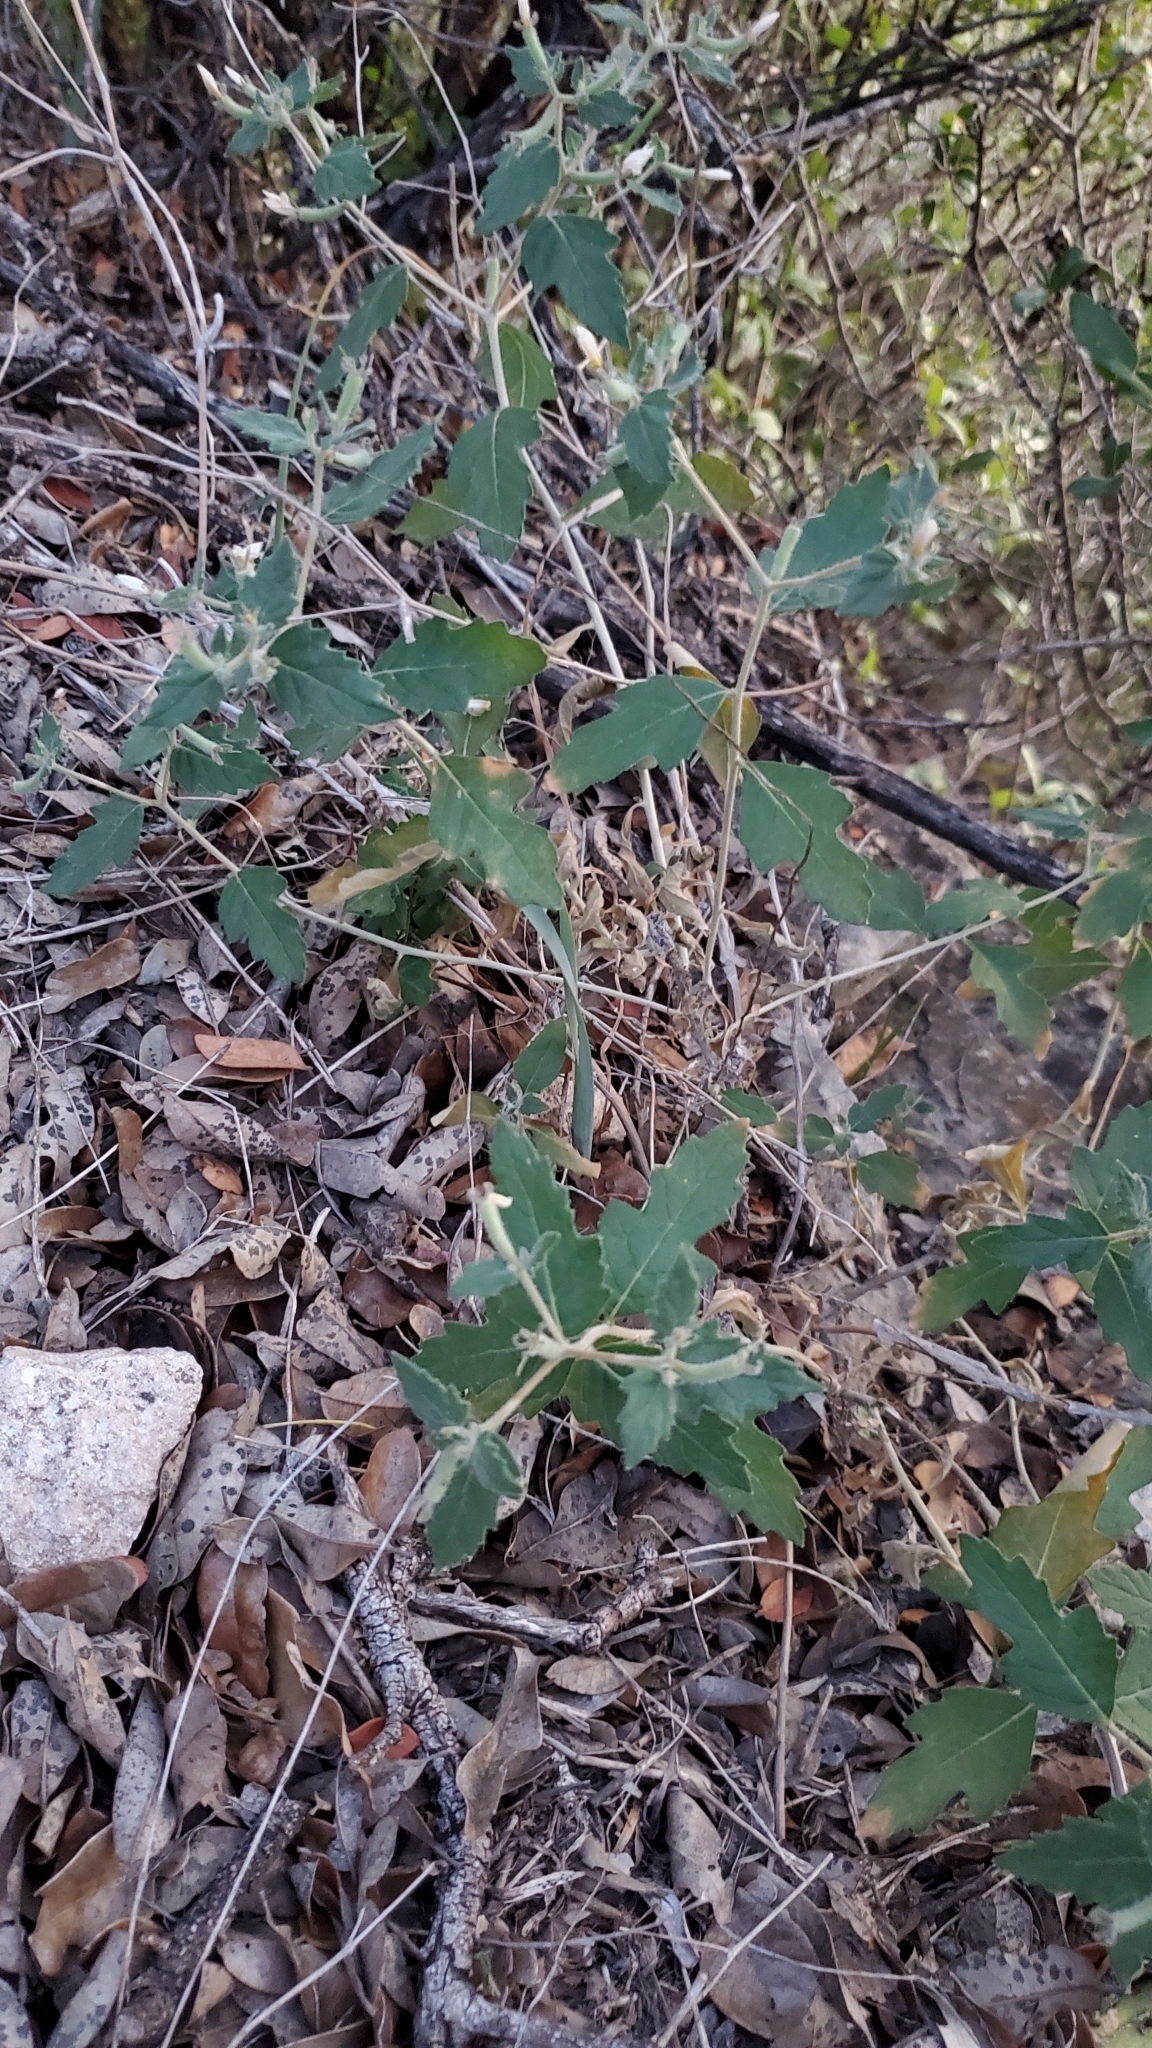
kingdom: Plantae
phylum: Tracheophyta
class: Magnoliopsida
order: Cornales
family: Loasaceae
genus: Mentzelia
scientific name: Mentzelia oligosperma
